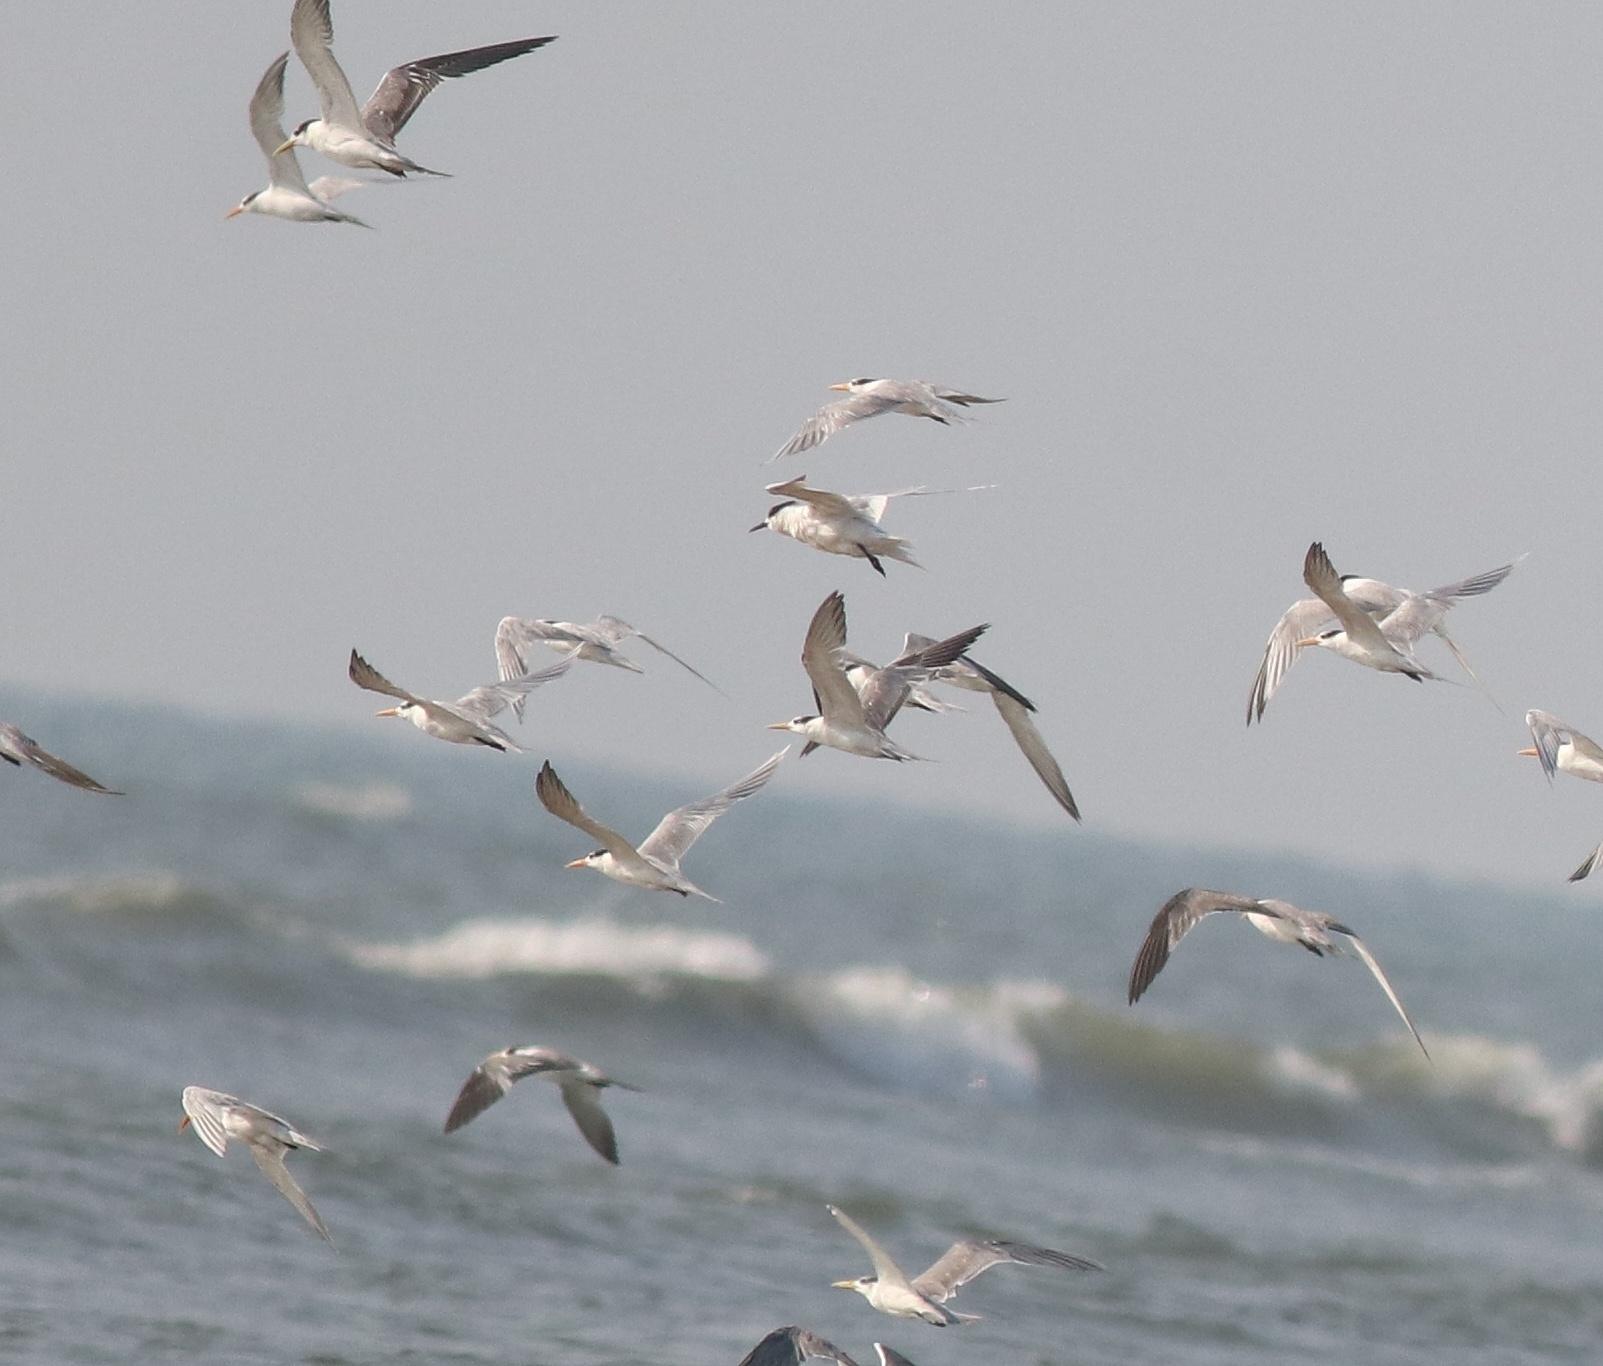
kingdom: Animalia
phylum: Chordata
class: Aves
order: Charadriiformes
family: Laridae
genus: Thalasseus
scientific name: Thalasseus bengalensis
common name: Lesser crested tern
